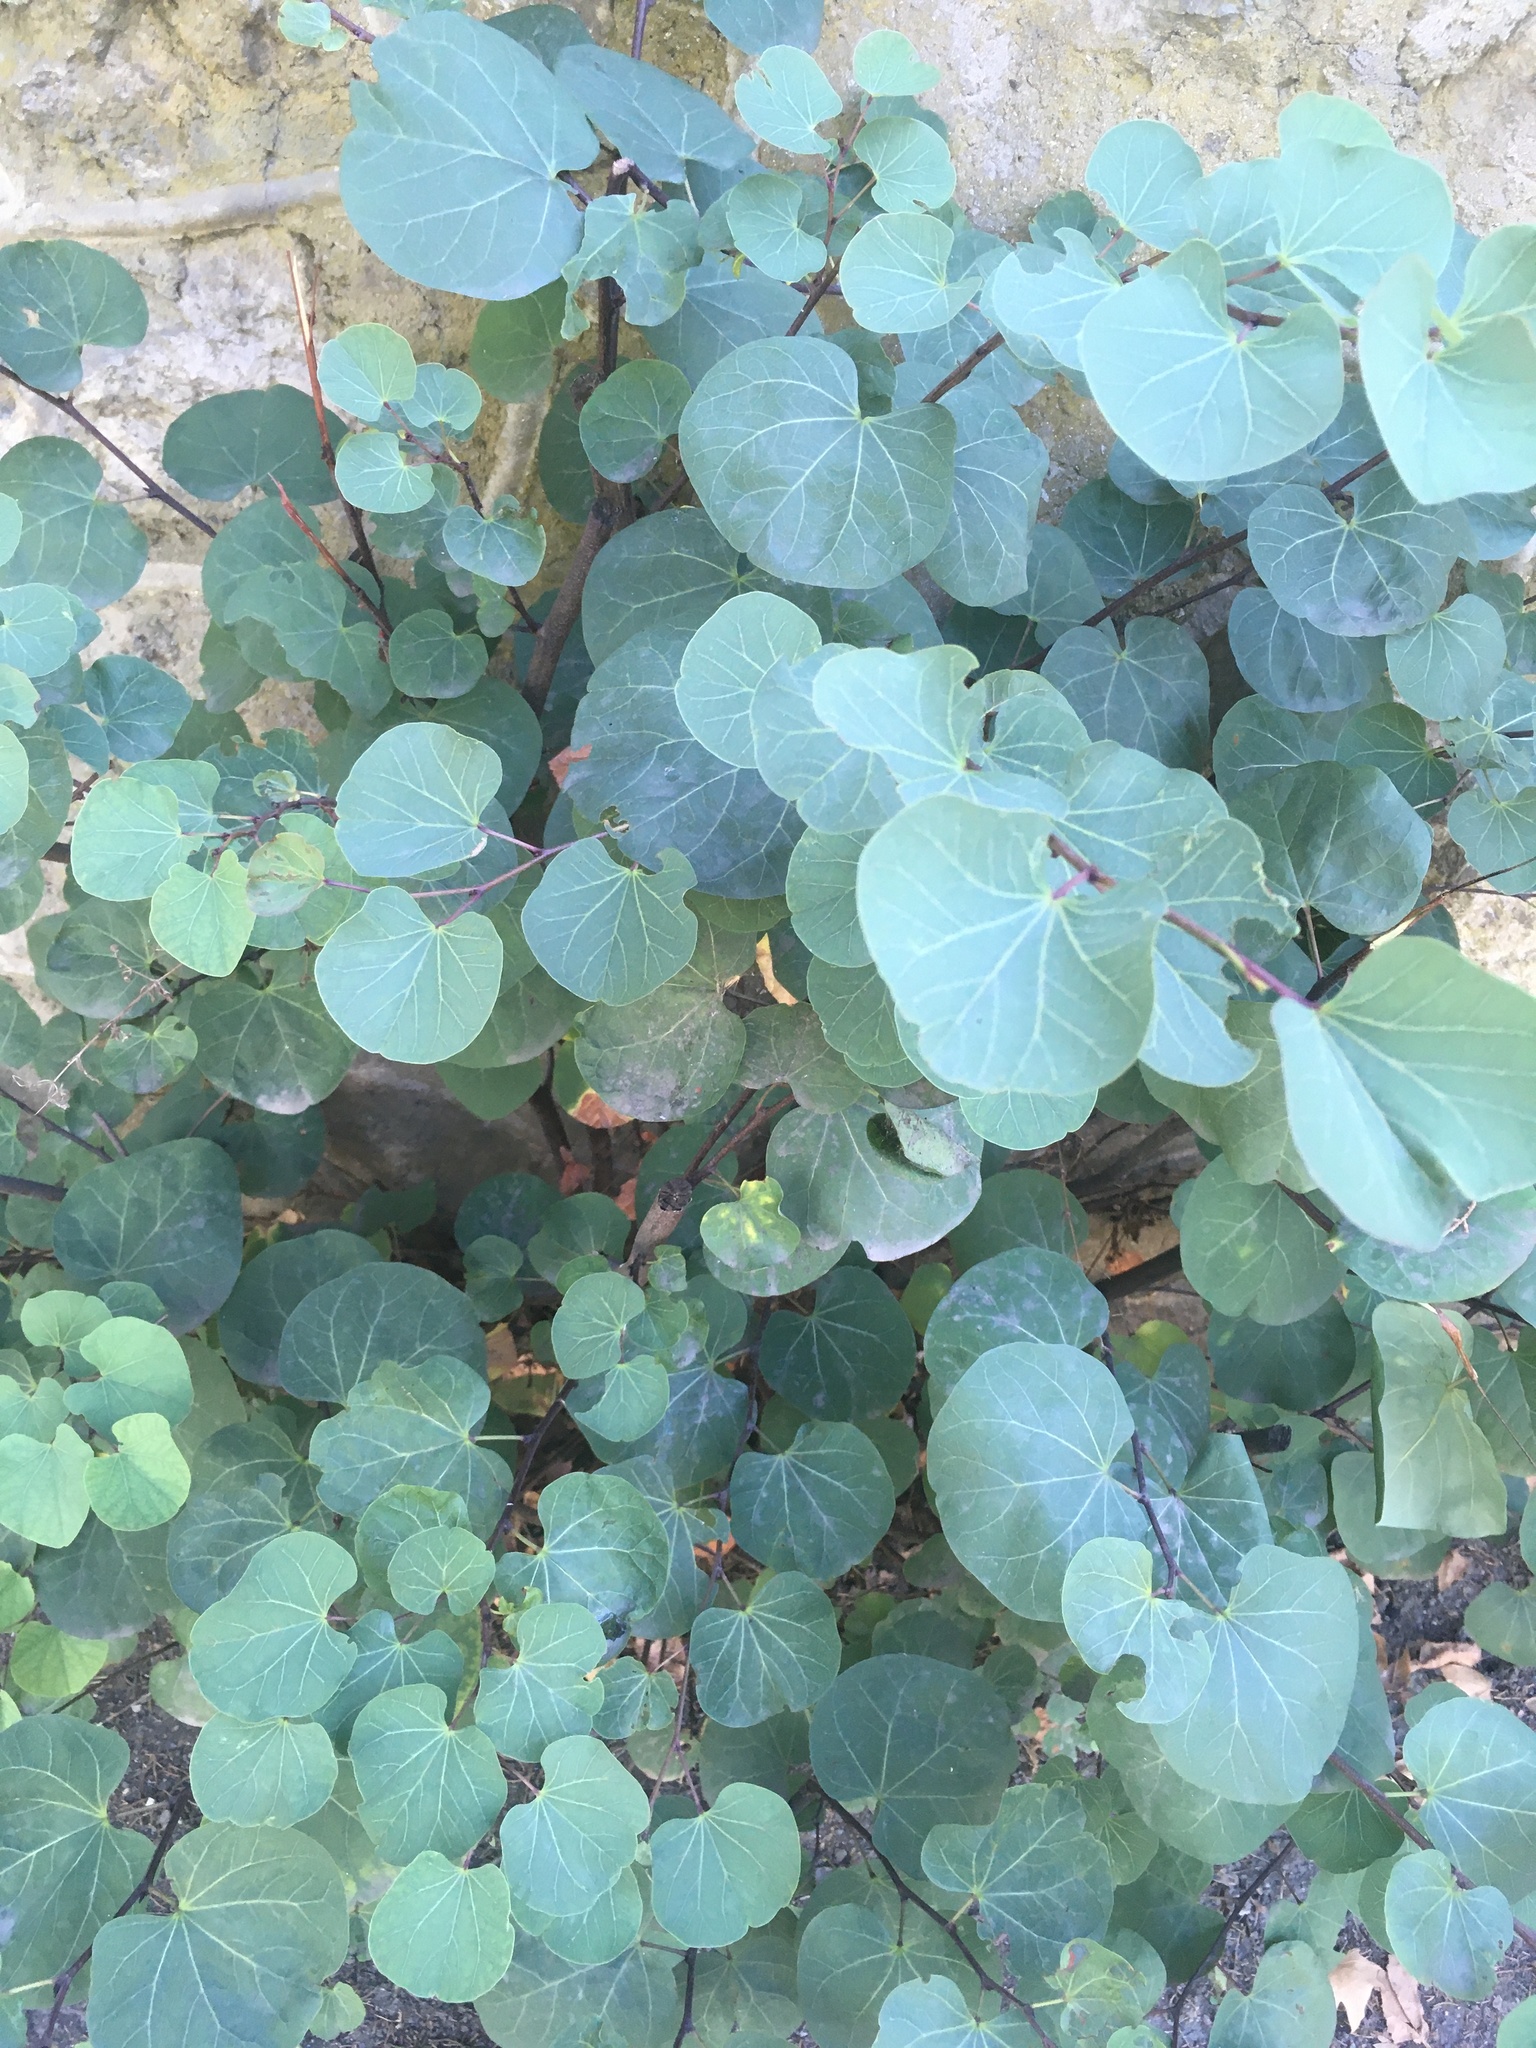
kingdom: Plantae
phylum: Tracheophyta
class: Magnoliopsida
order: Fabales
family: Fabaceae
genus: Cercis
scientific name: Cercis siliquastrum
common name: Judas tree
